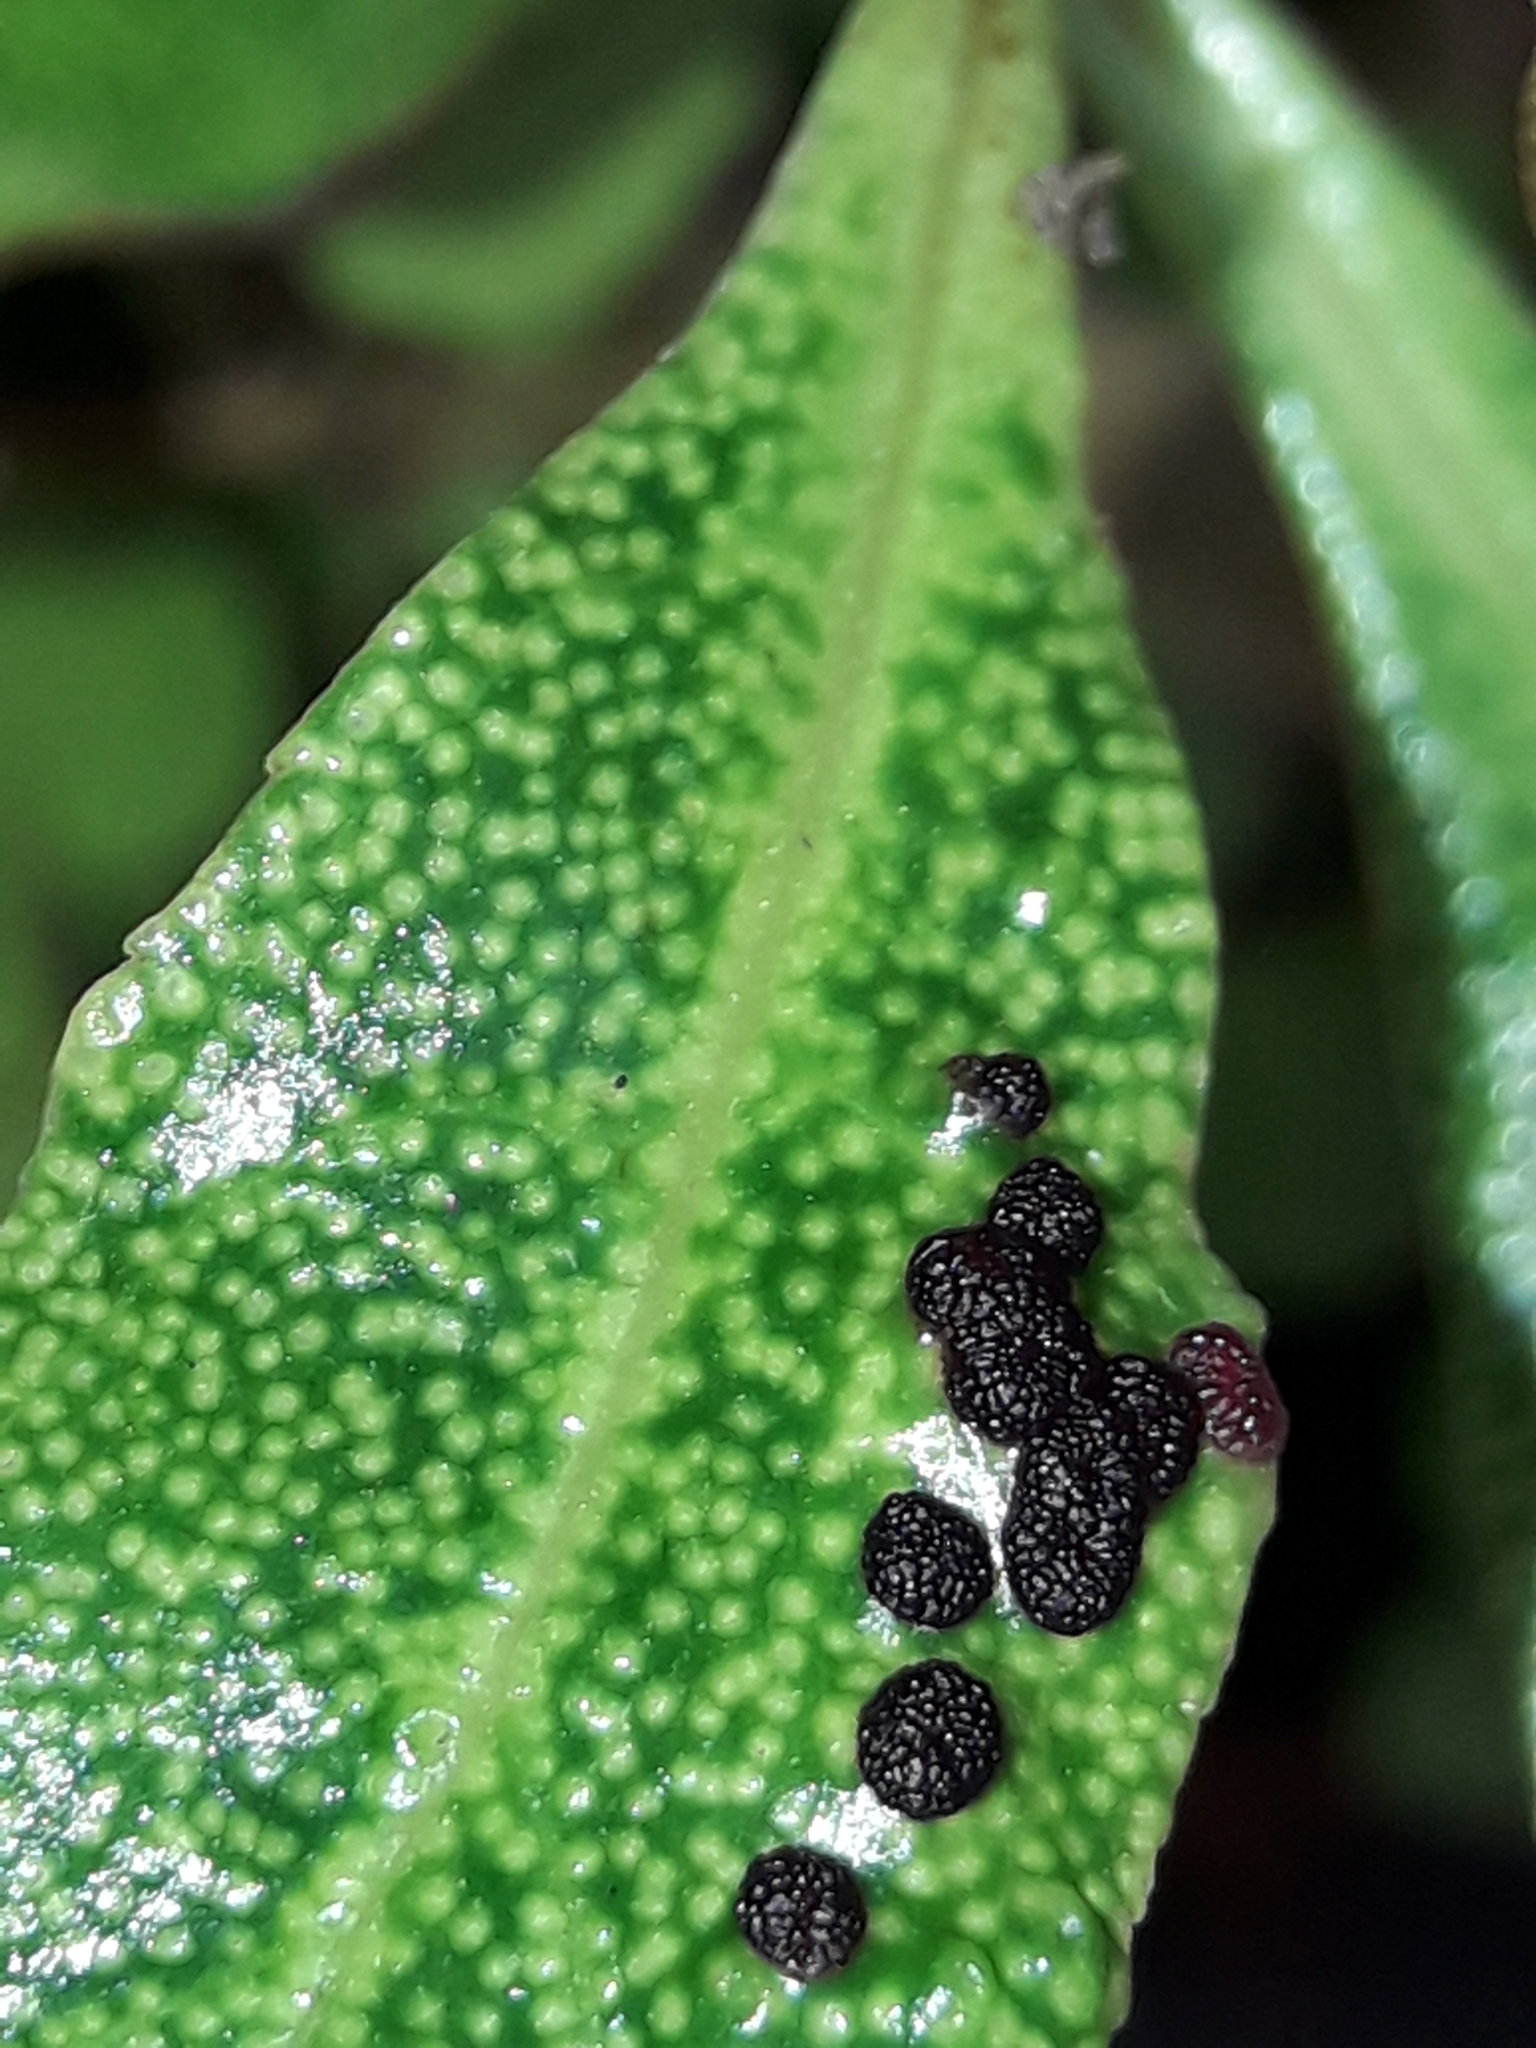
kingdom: Animalia
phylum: Arthropoda
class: Arachnida
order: Trombidiformes
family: Eriophyidae
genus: Aceria
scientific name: Aceria healyi
